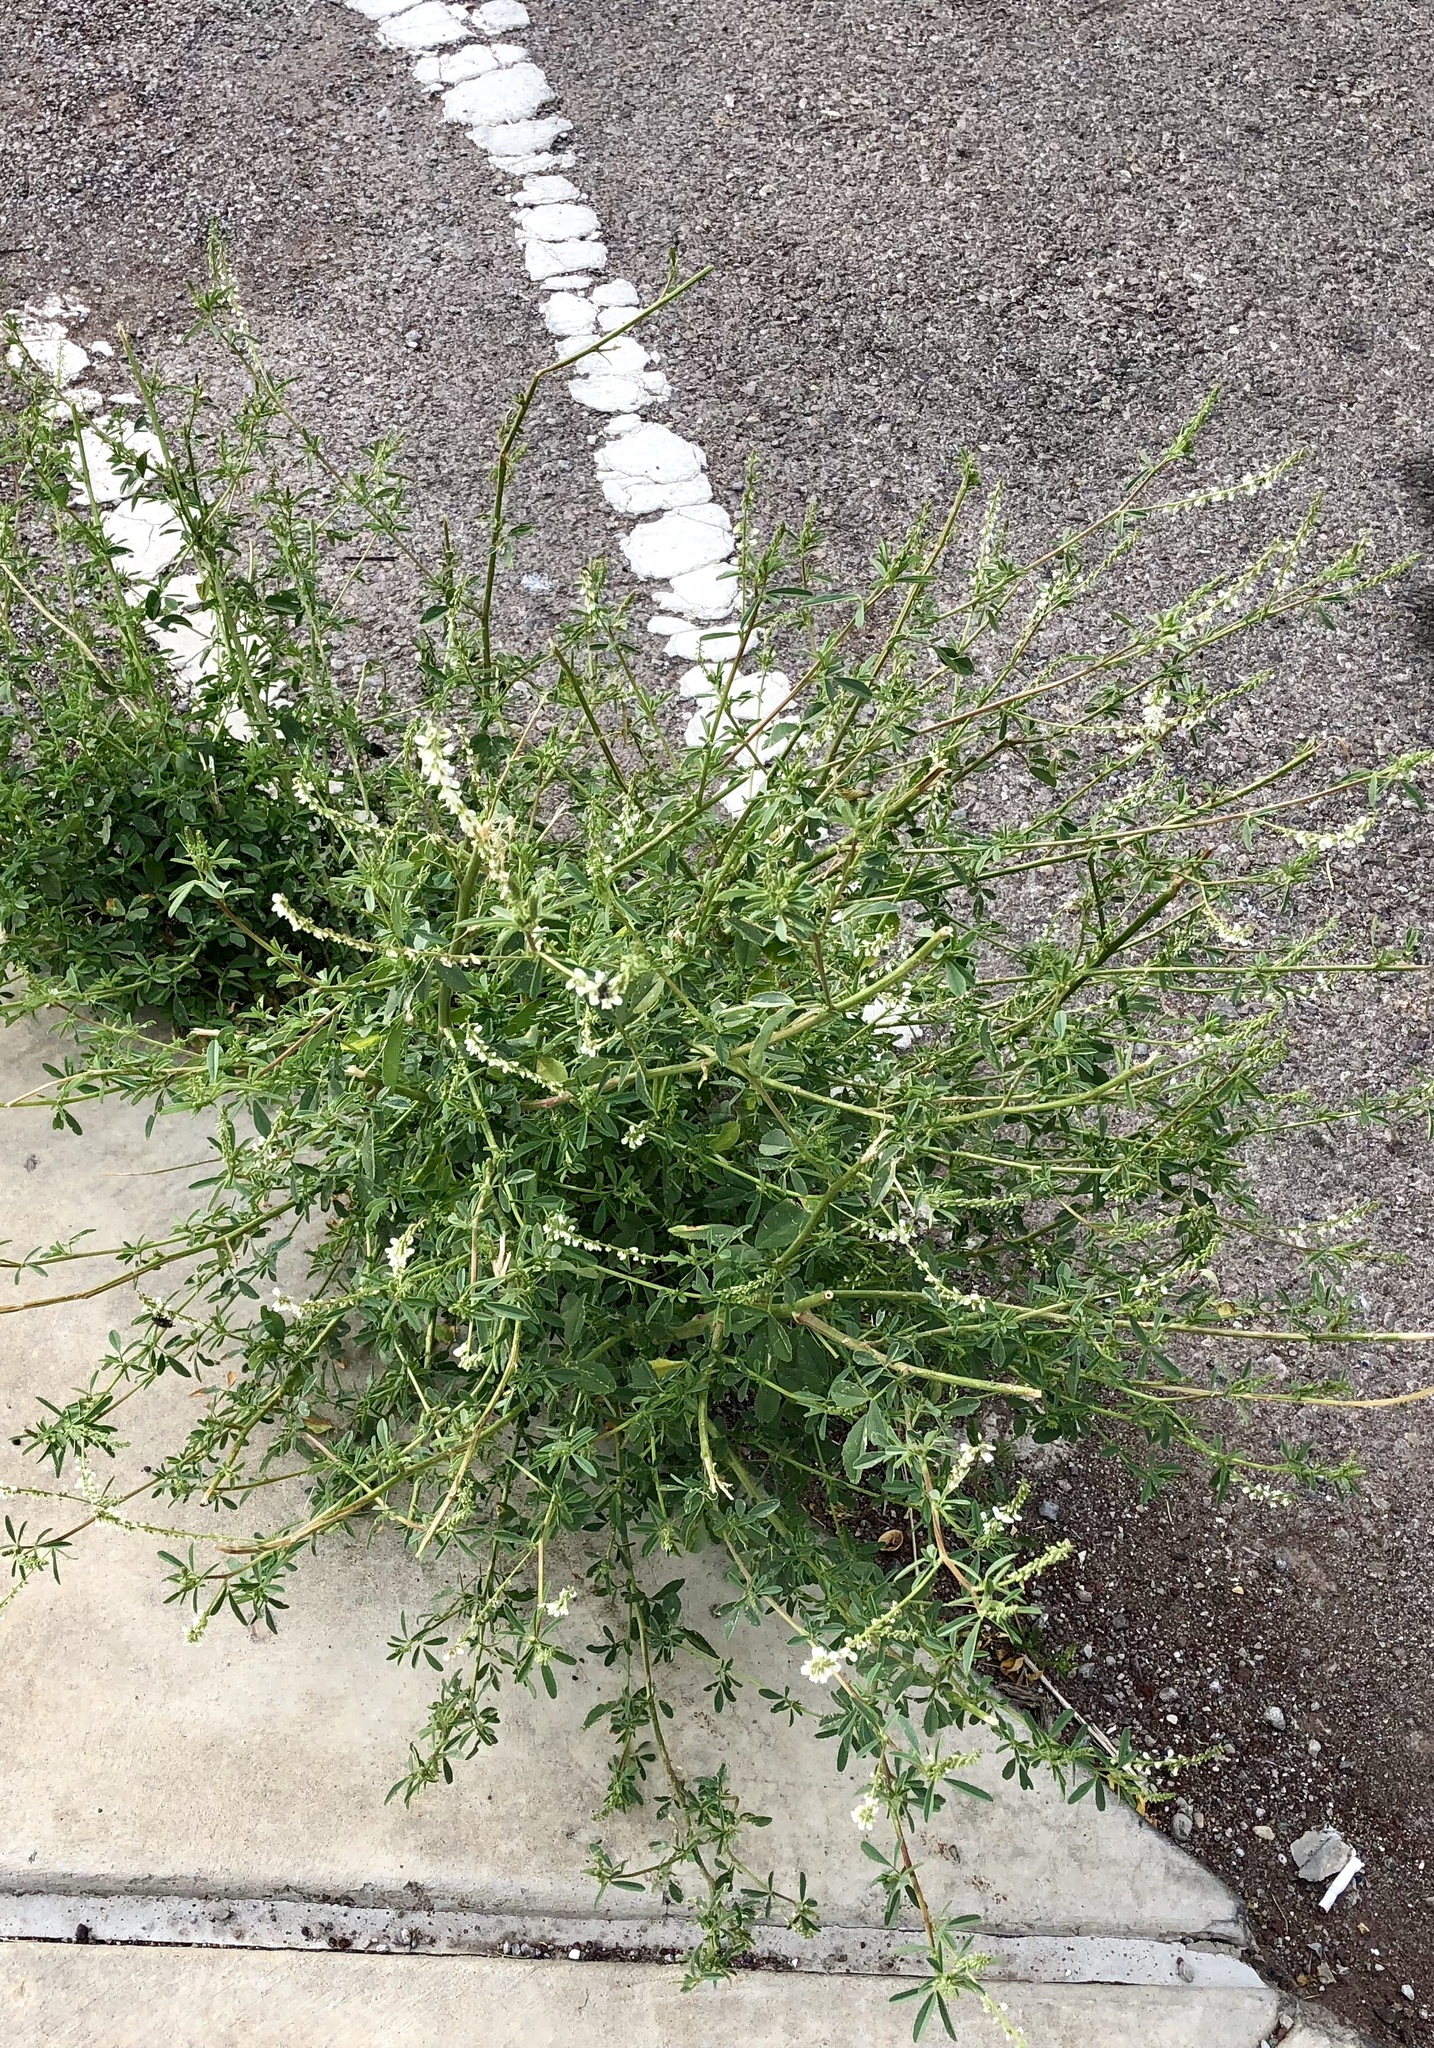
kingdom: Plantae
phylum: Tracheophyta
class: Magnoliopsida
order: Fabales
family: Fabaceae
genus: Melilotus
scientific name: Melilotus albus
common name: White melilot
